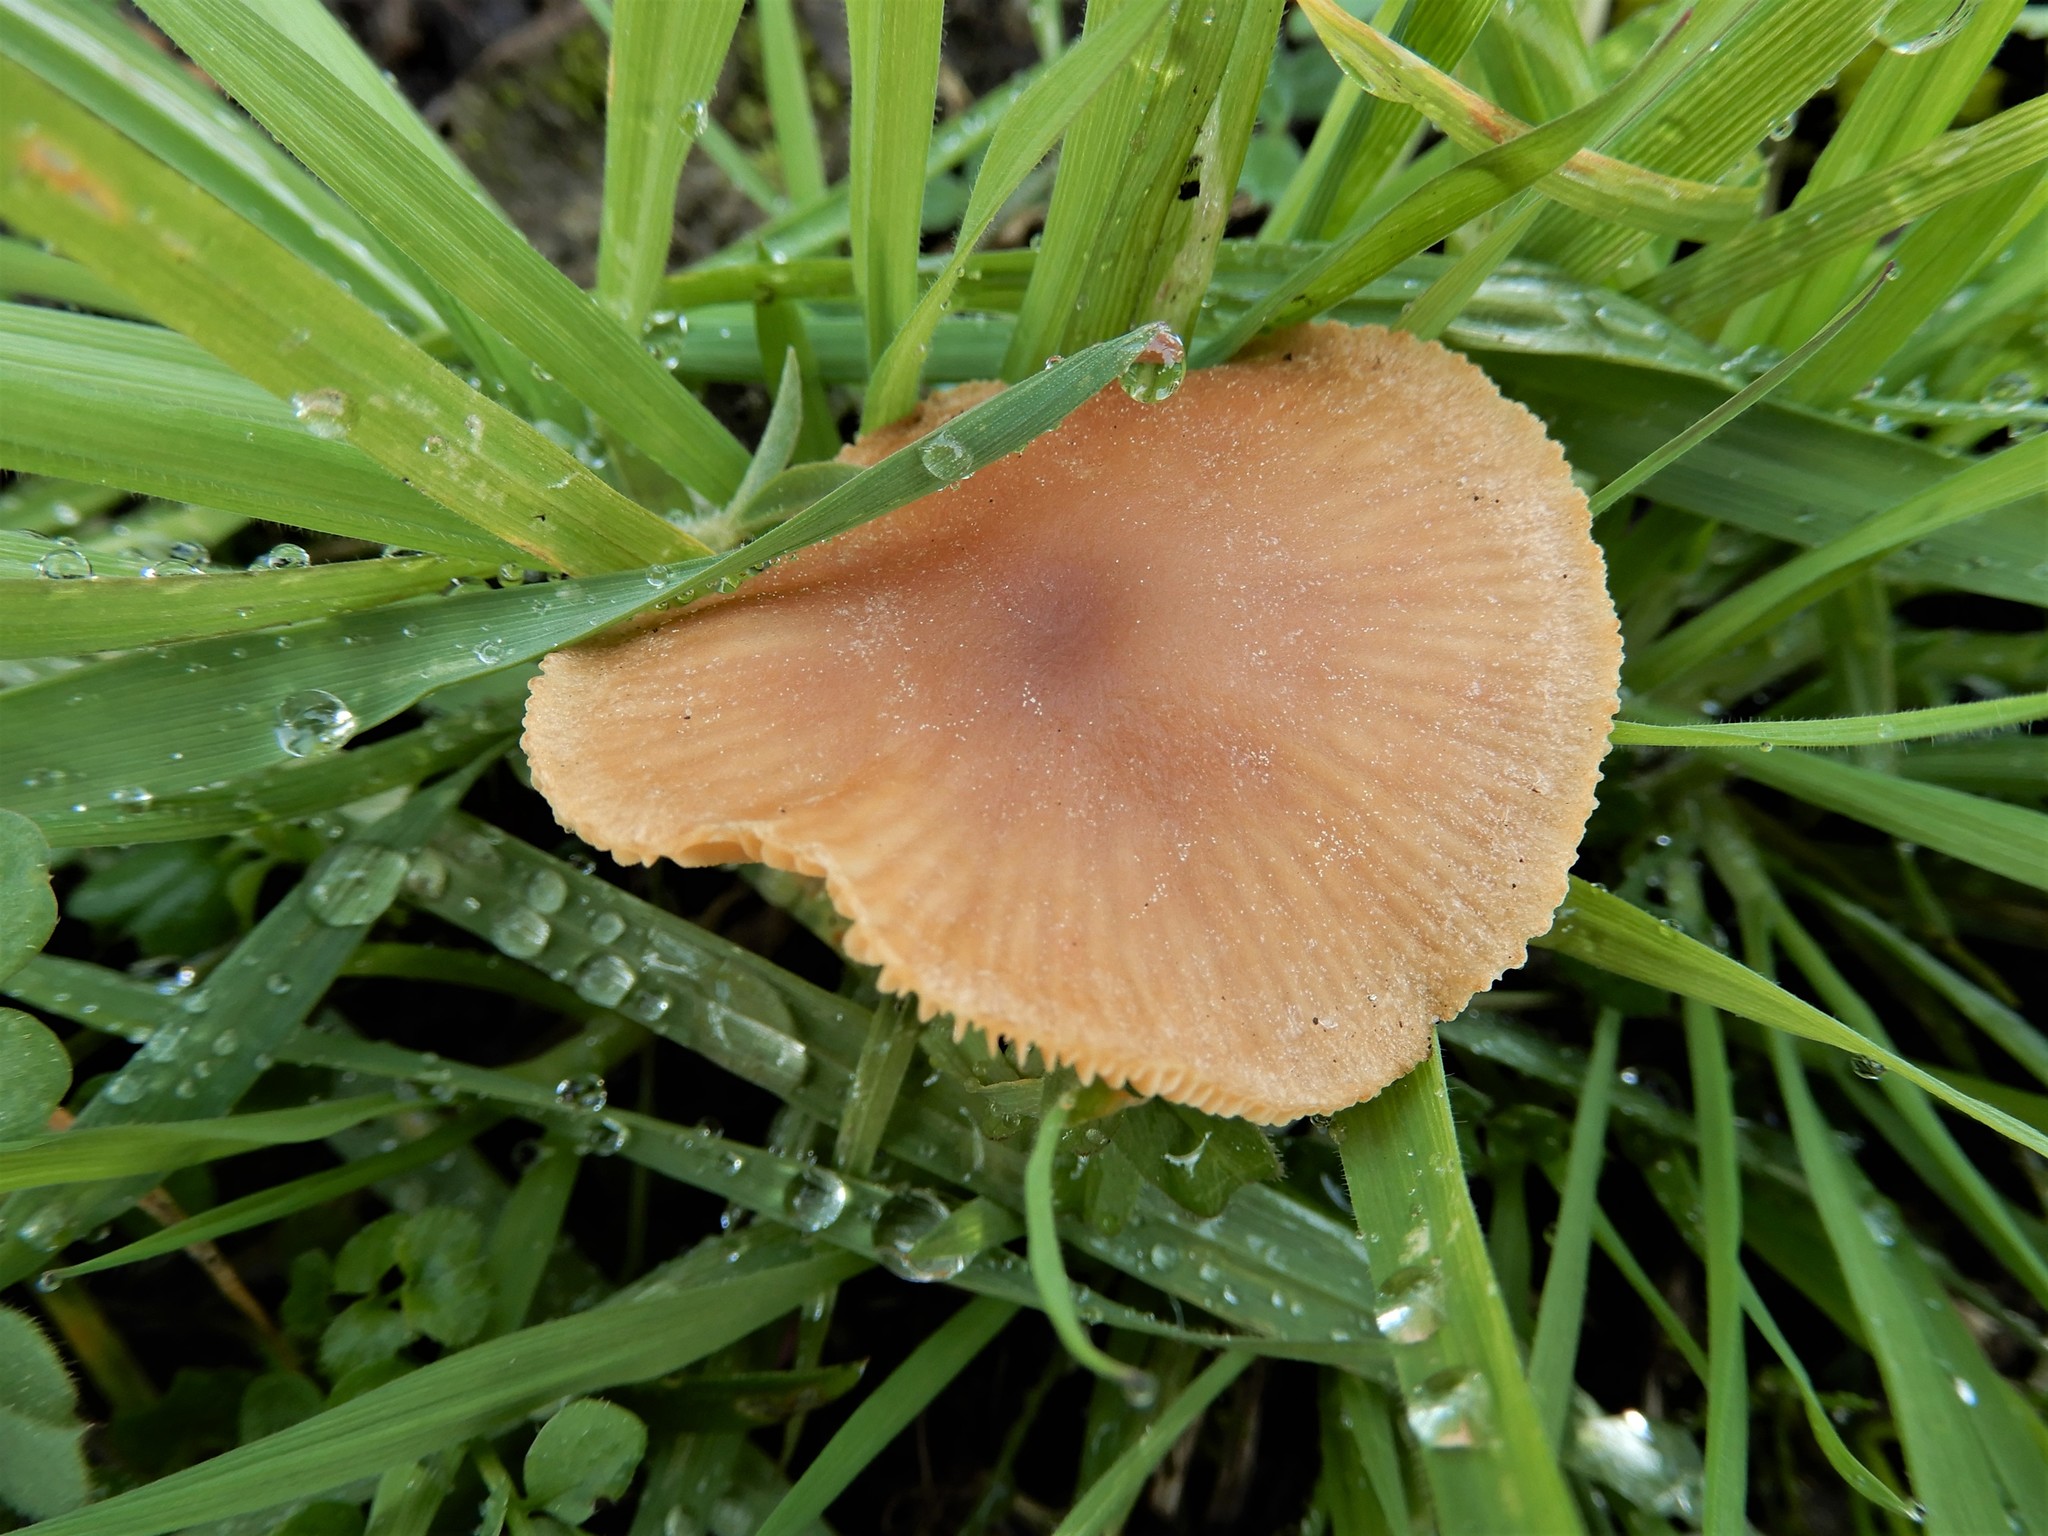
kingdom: Fungi
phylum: Basidiomycota
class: Agaricomycetes
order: Agaricales
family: Tubariaceae
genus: Tubaria
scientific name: Tubaria furfuracea
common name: Scurfy twiglet
